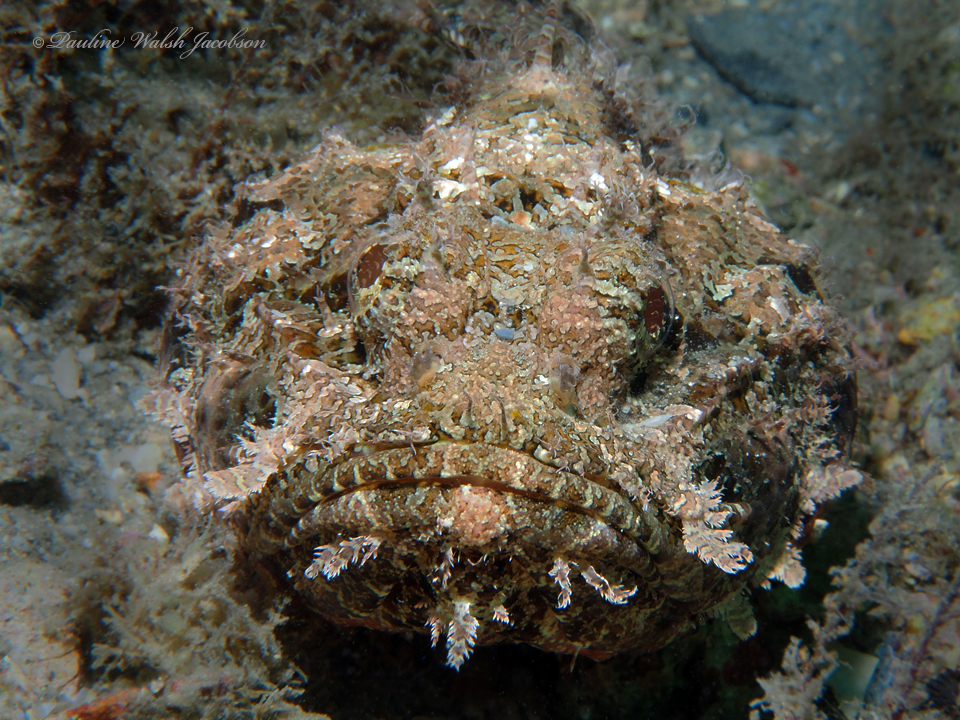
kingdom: Animalia
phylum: Chordata
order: Scorpaeniformes
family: Scorpaenidae
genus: Scorpaena
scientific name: Scorpaena plumieri
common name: Spotted scorpionfish
